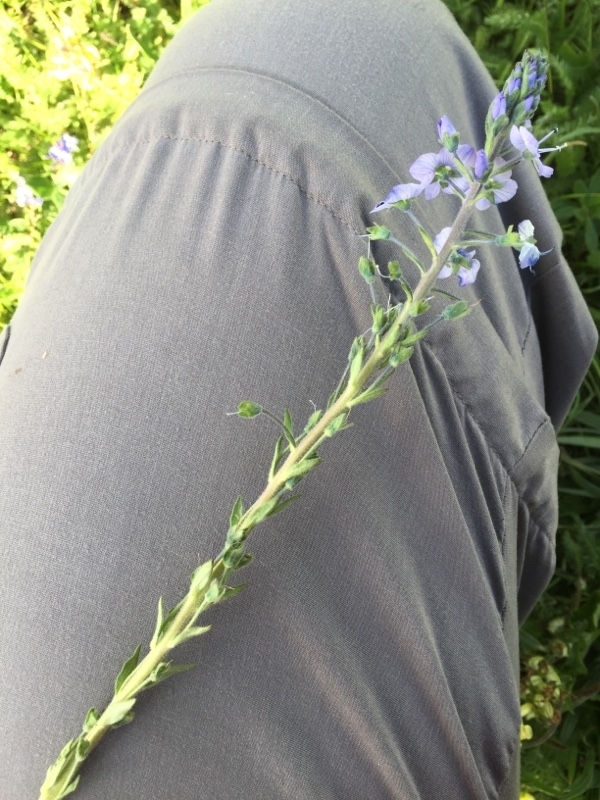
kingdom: Plantae
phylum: Tracheophyta
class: Magnoliopsida
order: Lamiales
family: Plantaginaceae
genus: Veronica
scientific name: Veronica gentianoides
